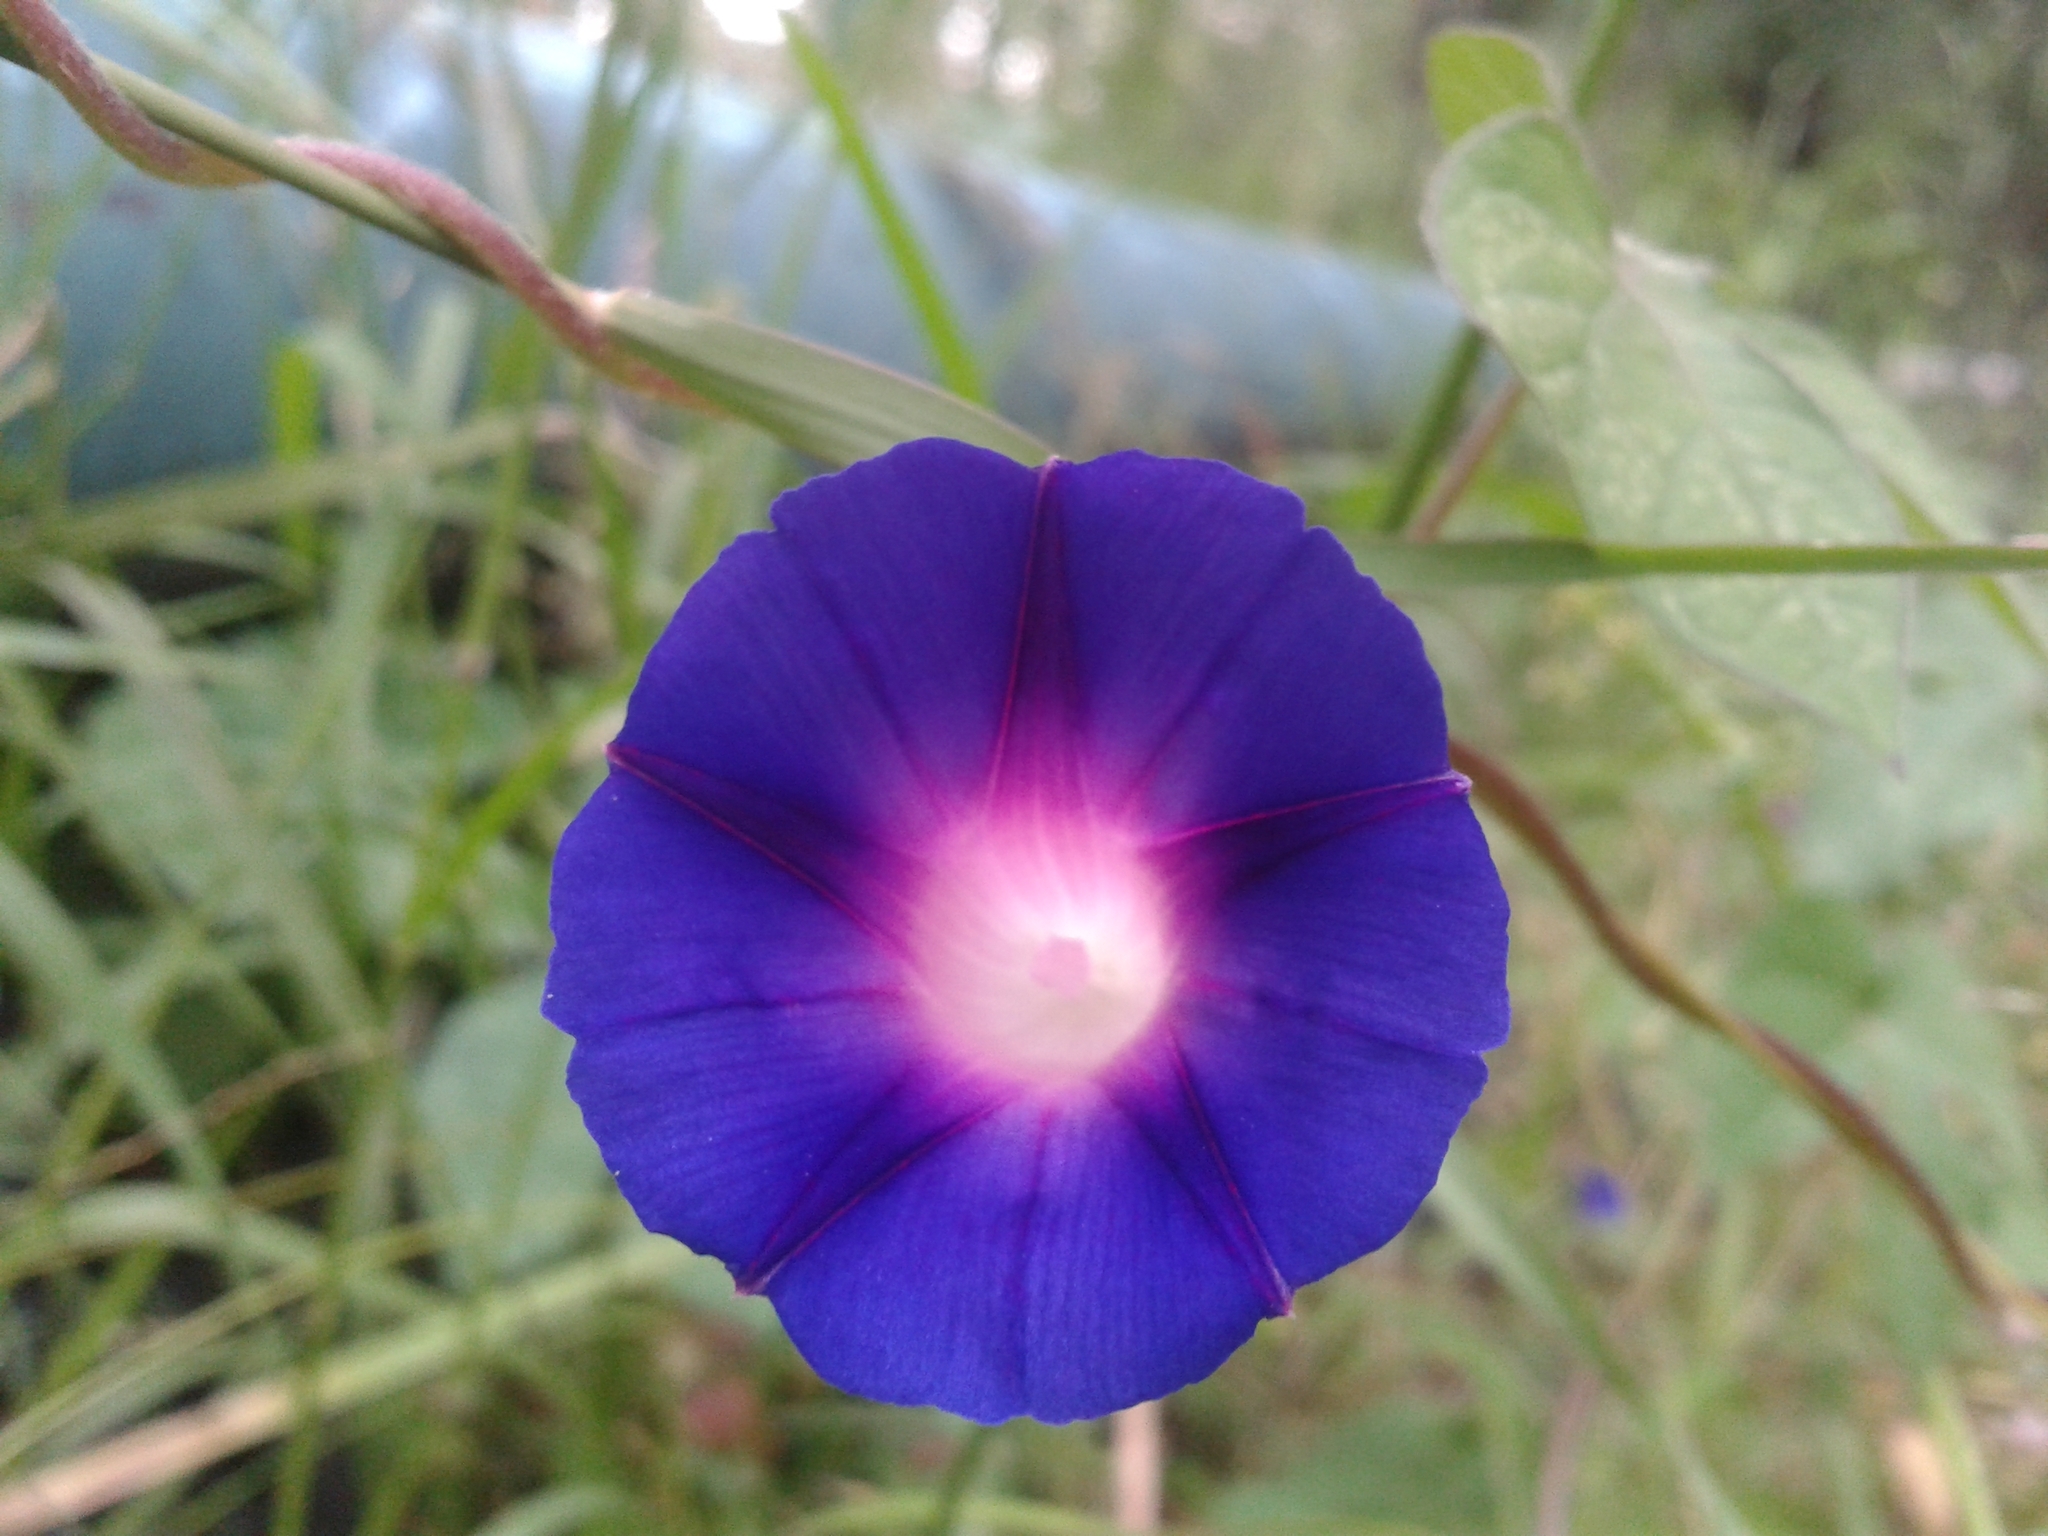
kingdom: Plantae
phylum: Tracheophyta
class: Magnoliopsida
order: Solanales
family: Convolvulaceae
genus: Ipomoea
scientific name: Ipomoea purpurea
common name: Common morning-glory
